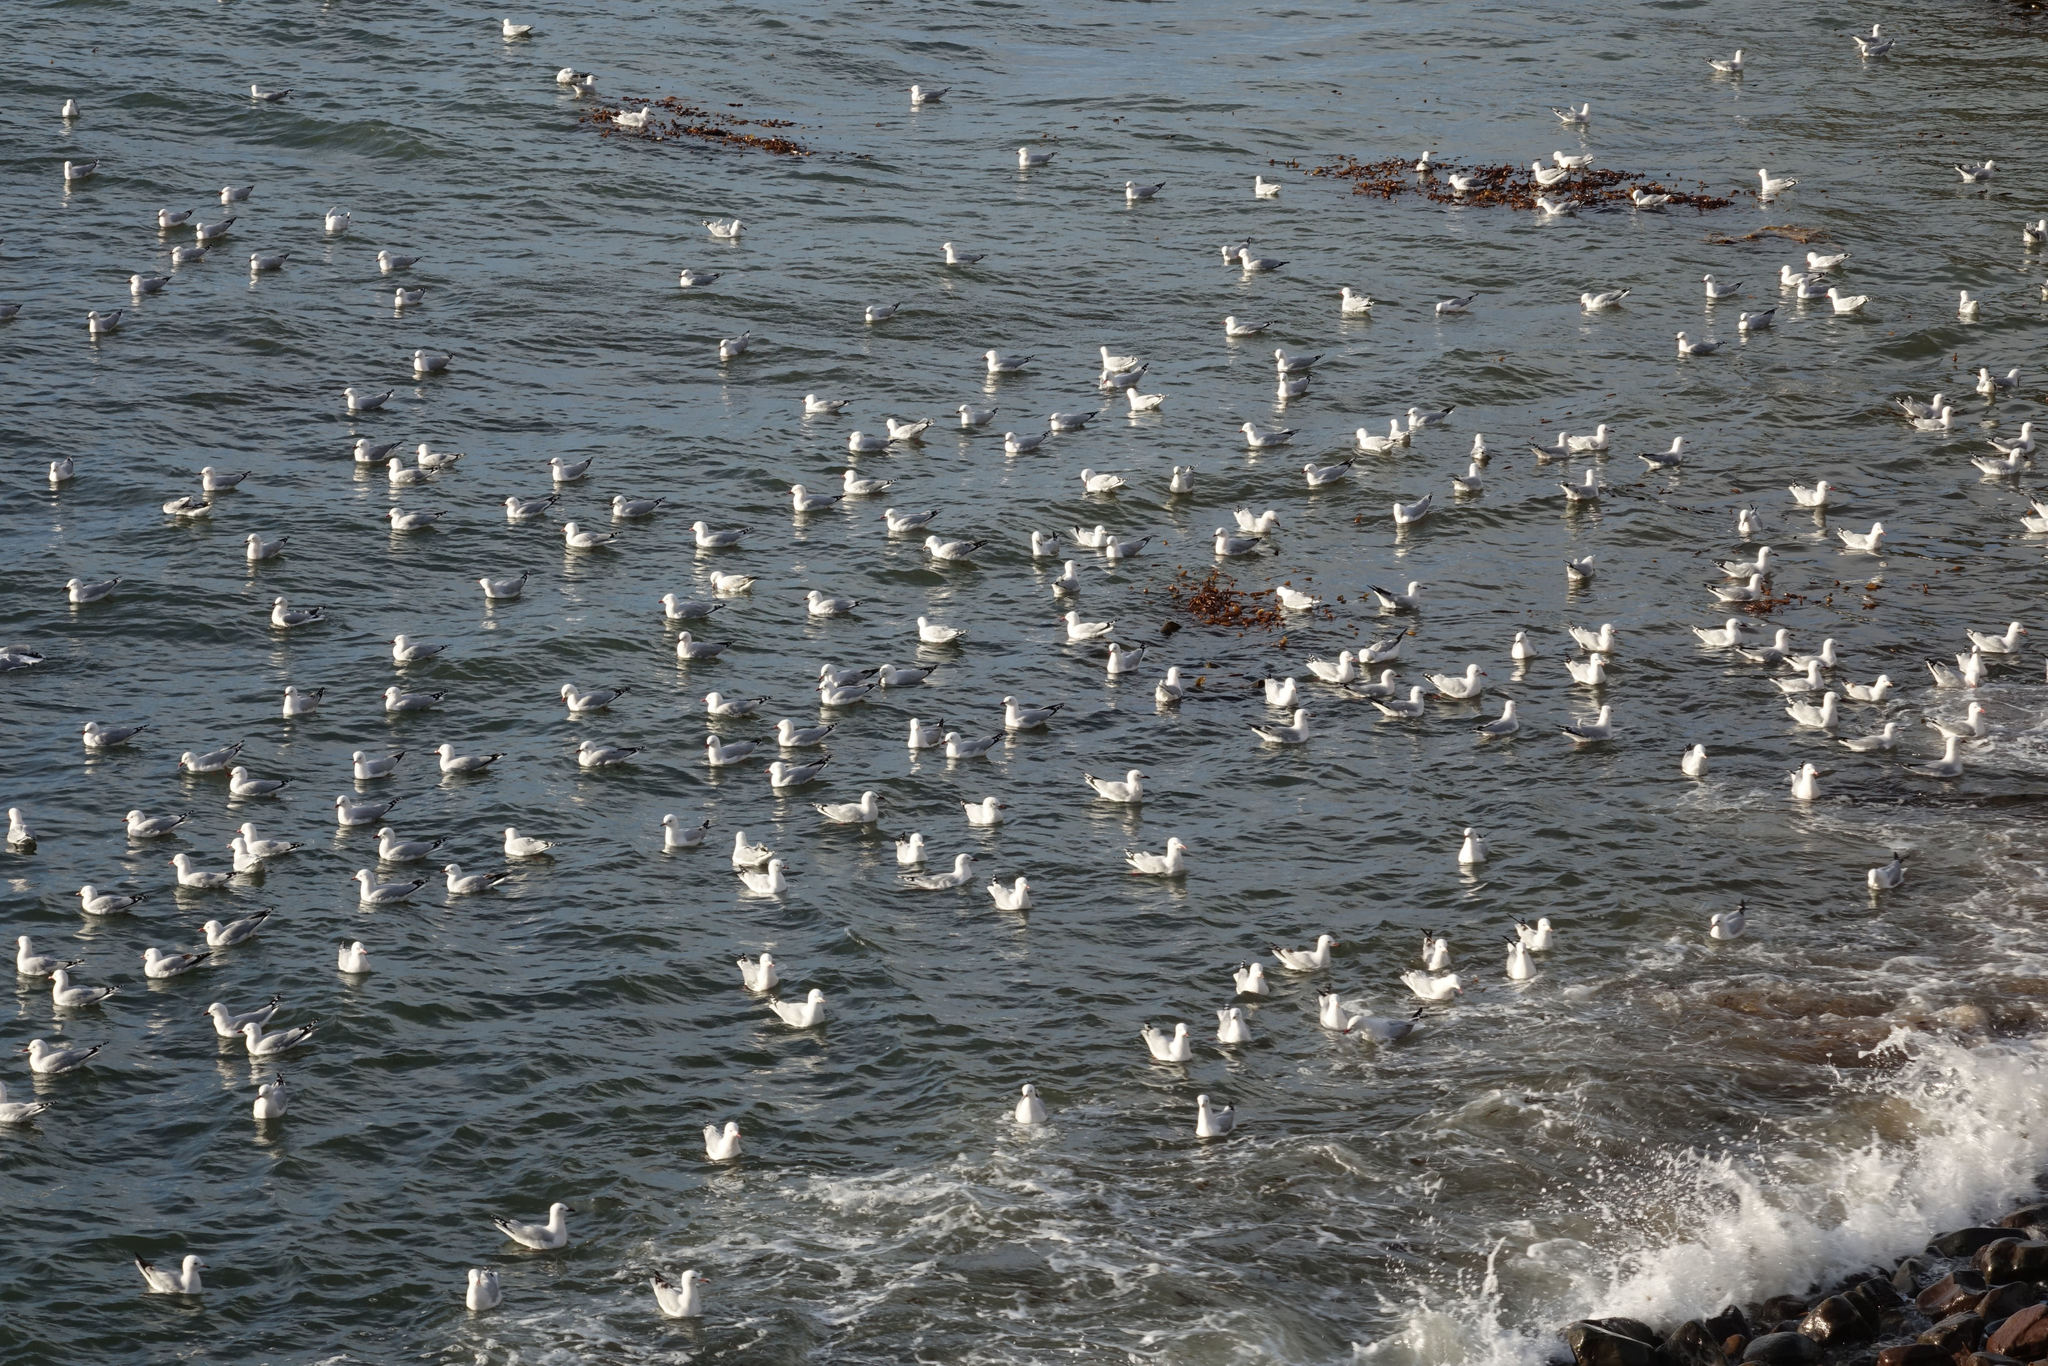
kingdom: Animalia
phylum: Chordata
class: Aves
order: Charadriiformes
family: Laridae
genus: Chroicocephalus
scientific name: Chroicocephalus novaehollandiae
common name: Silver gull
